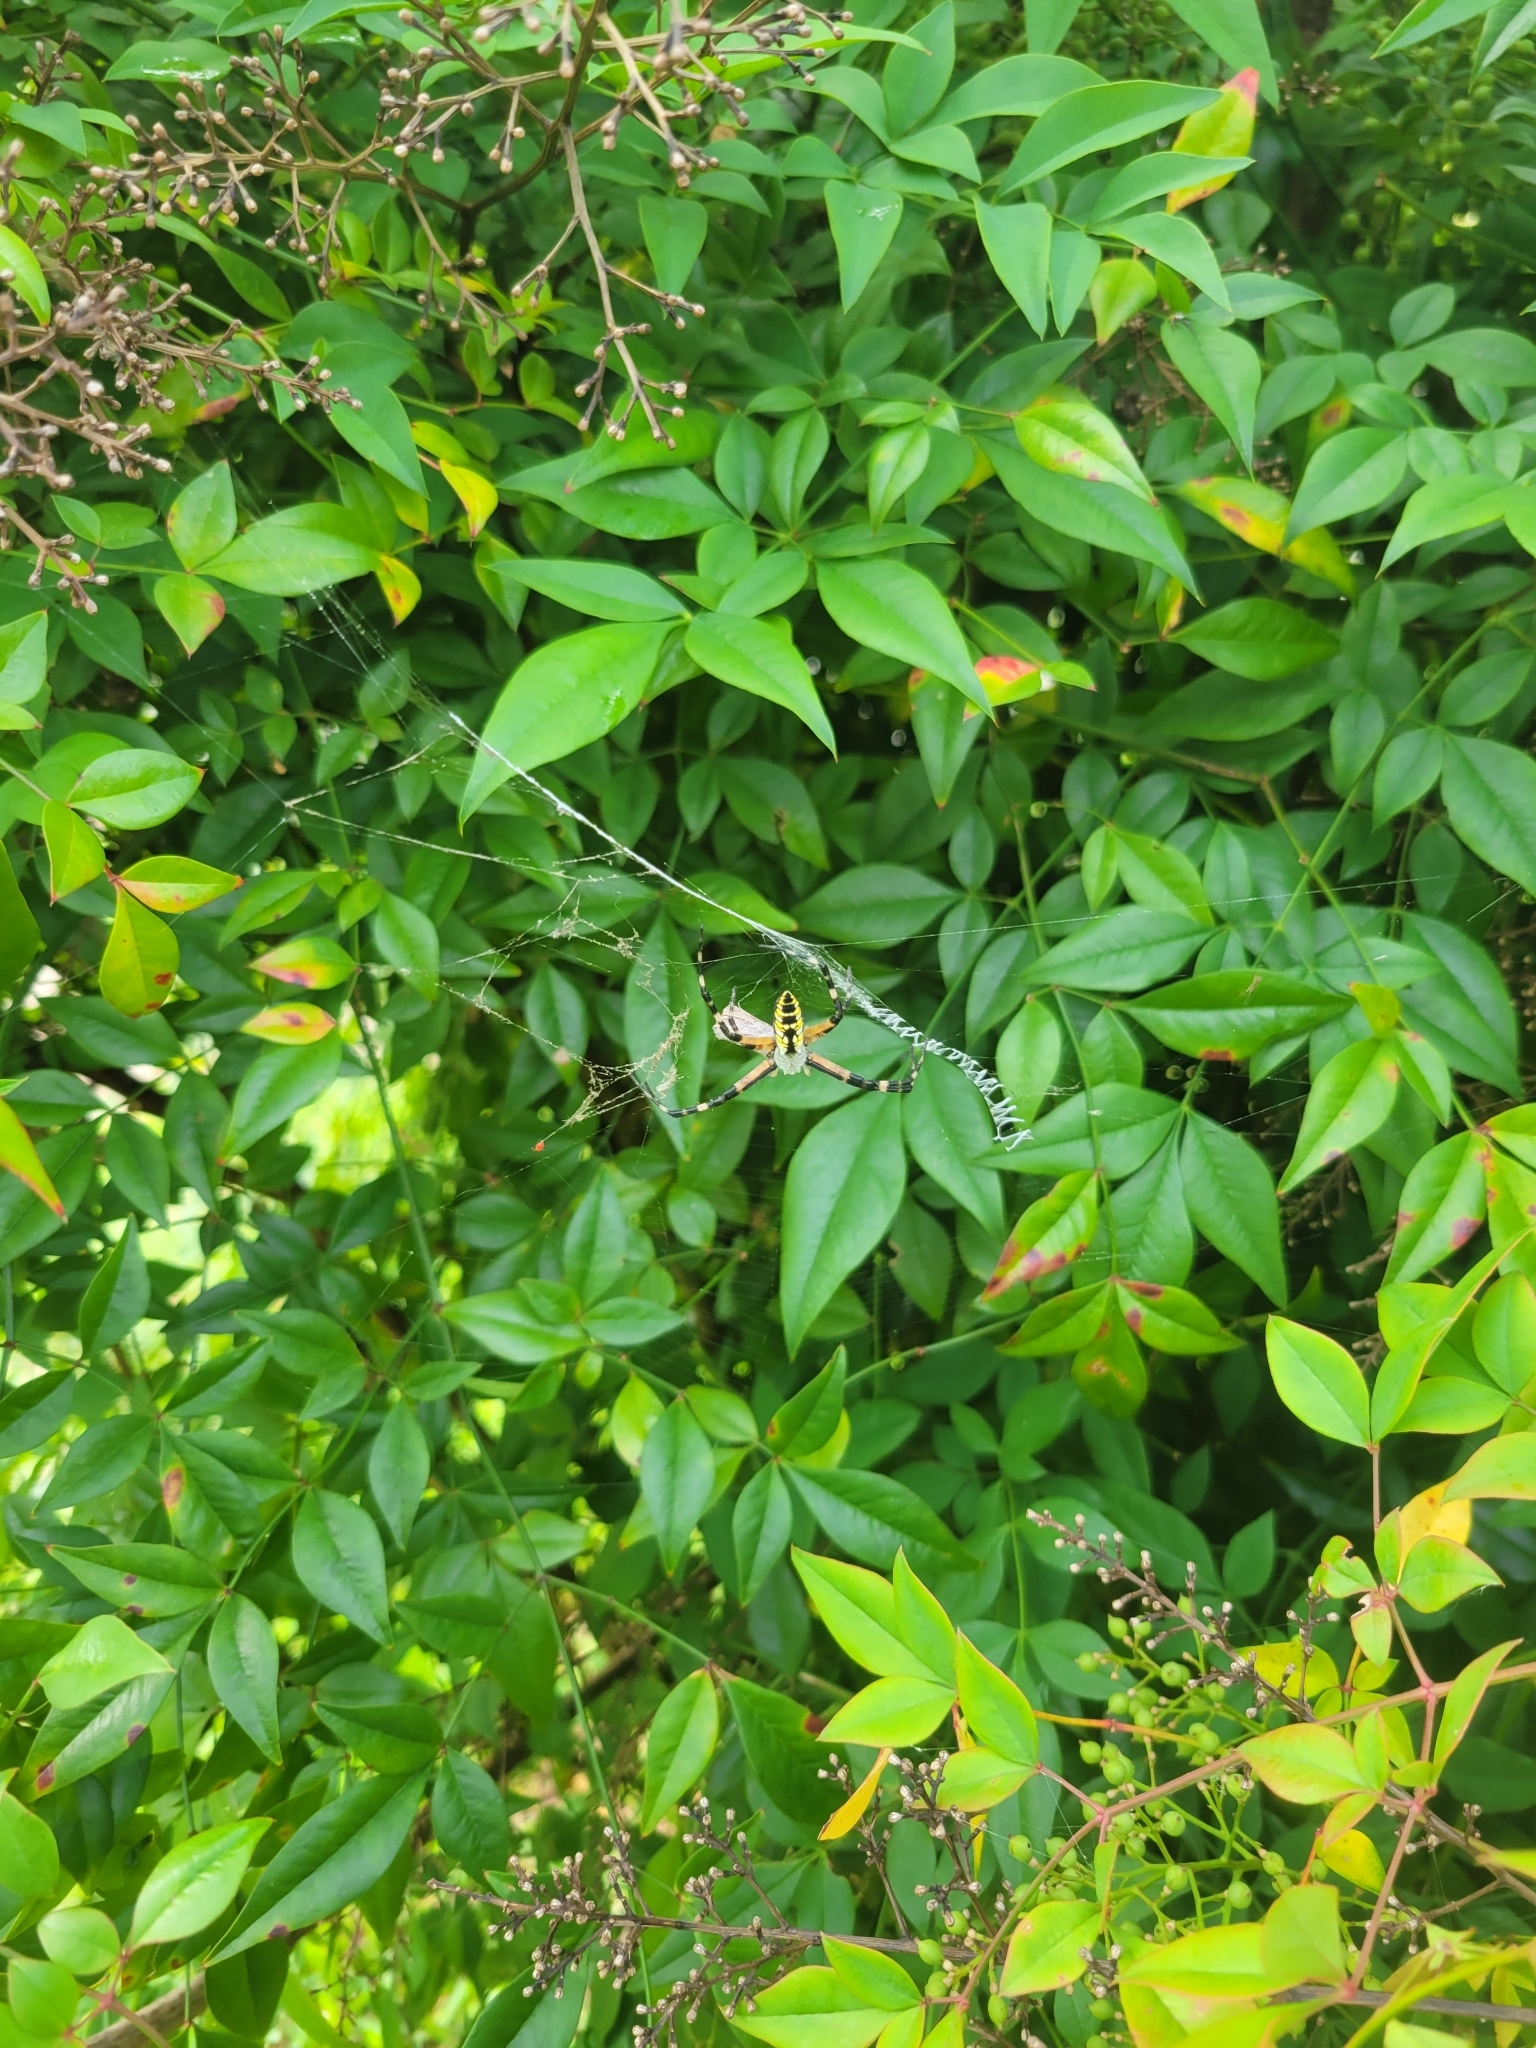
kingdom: Animalia
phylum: Arthropoda
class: Arachnida
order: Araneae
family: Araneidae
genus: Argiope
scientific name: Argiope aurantia
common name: Orb weavers
